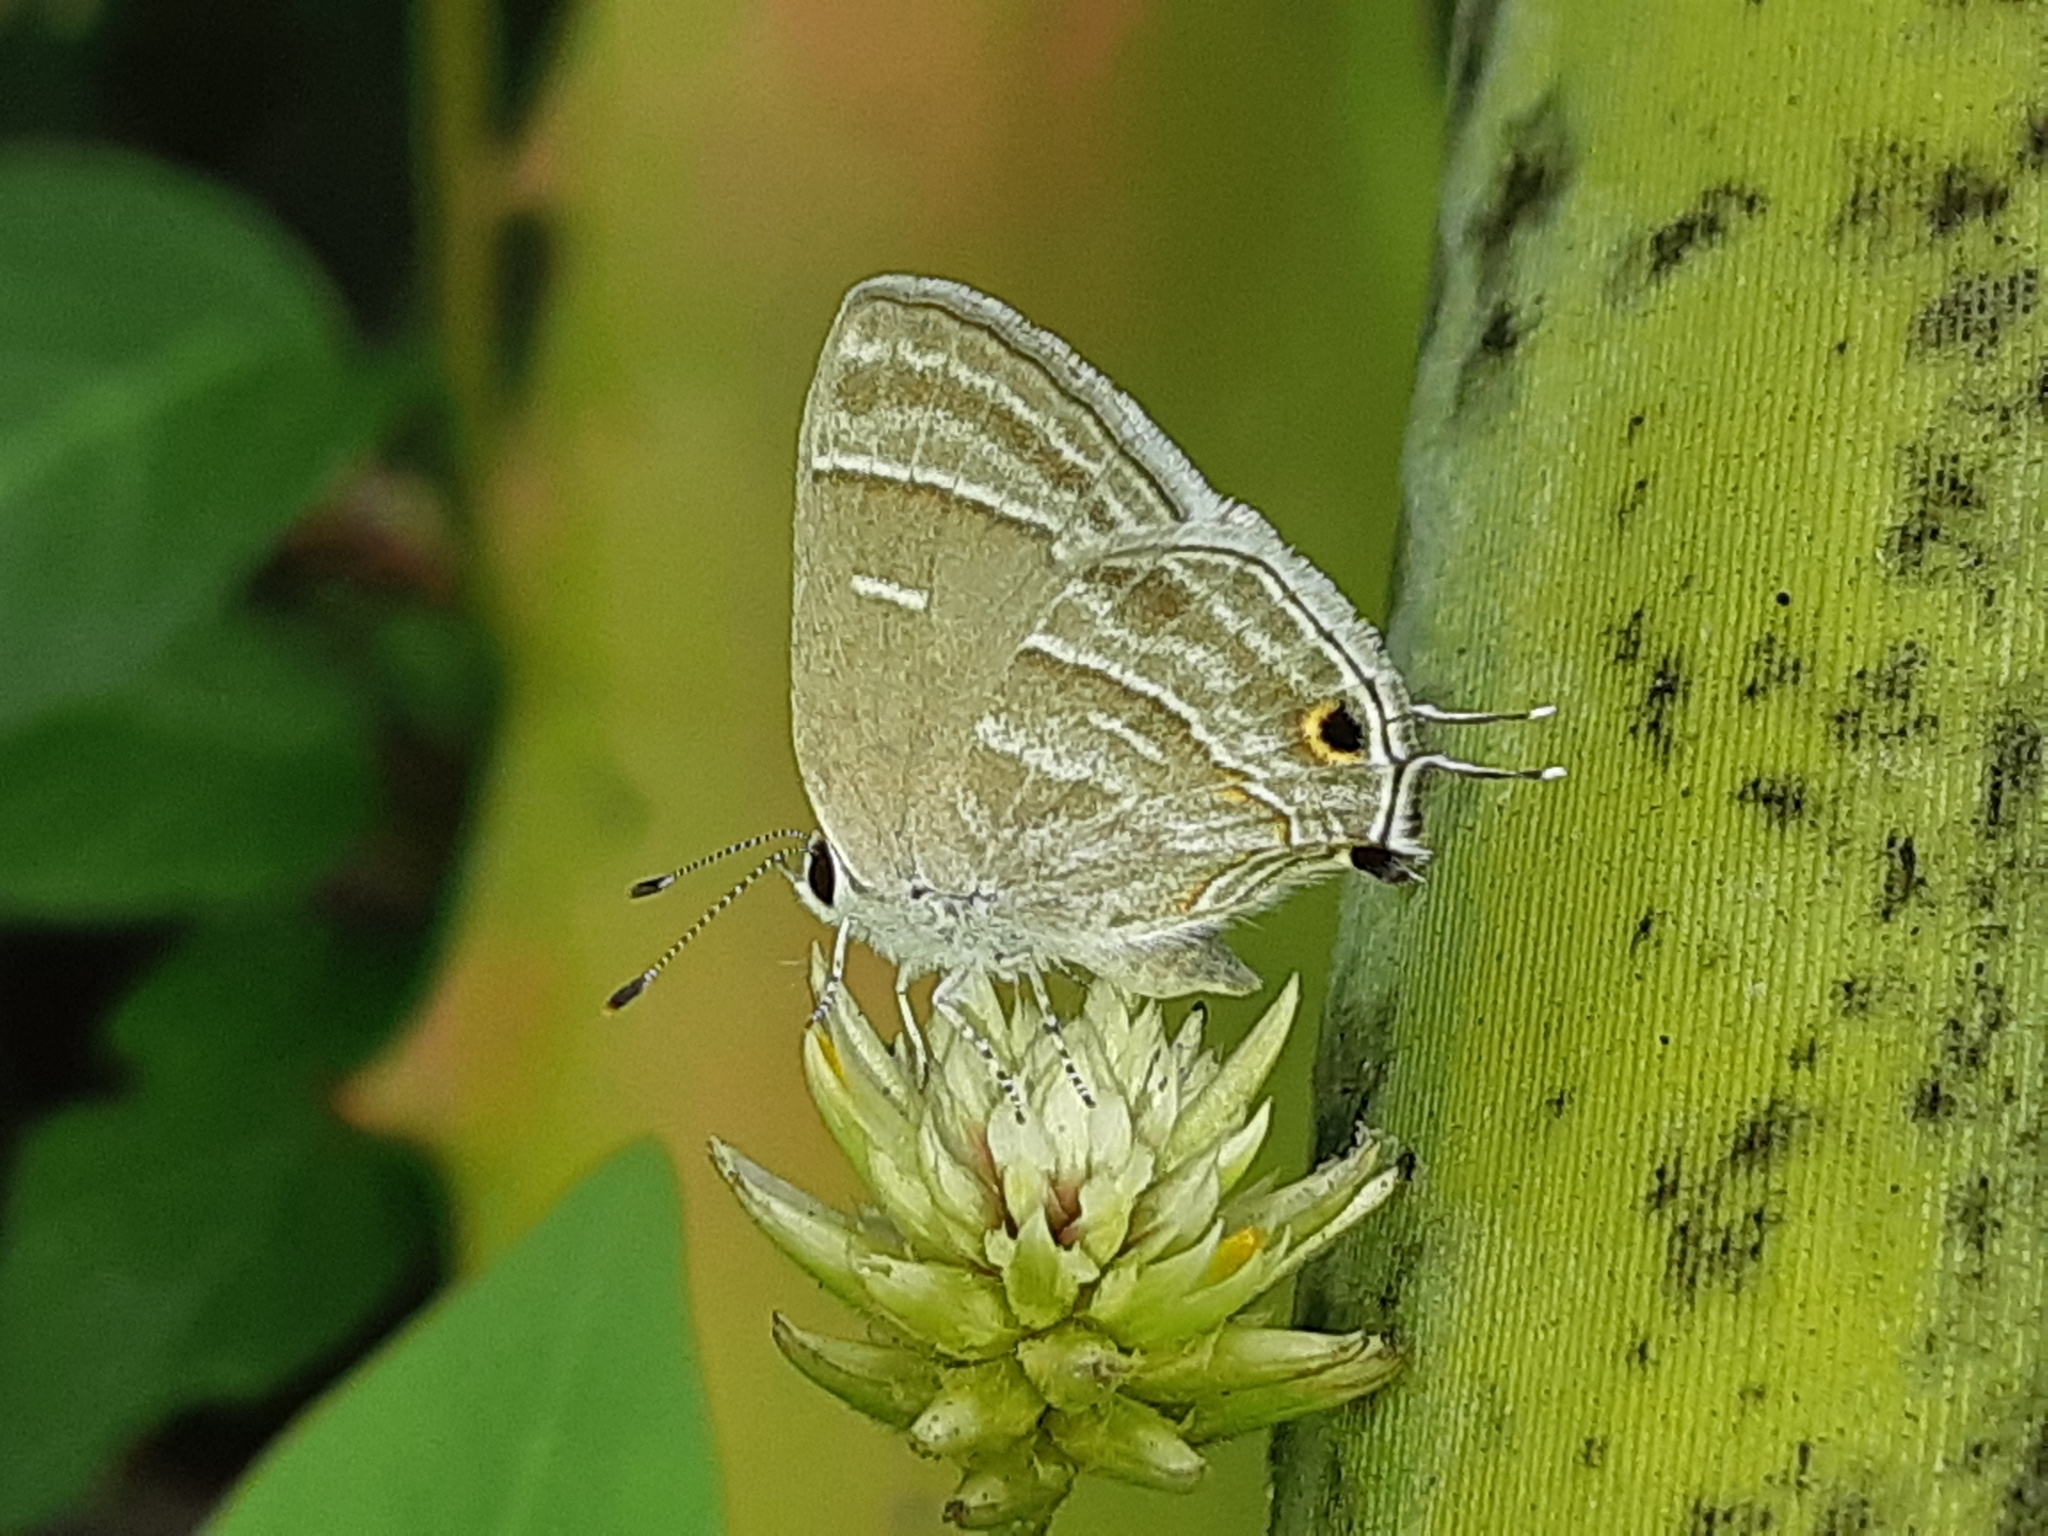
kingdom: Animalia
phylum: Arthropoda
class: Insecta
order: Lepidoptera
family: Lycaenidae
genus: Strymon
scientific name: Strymon
